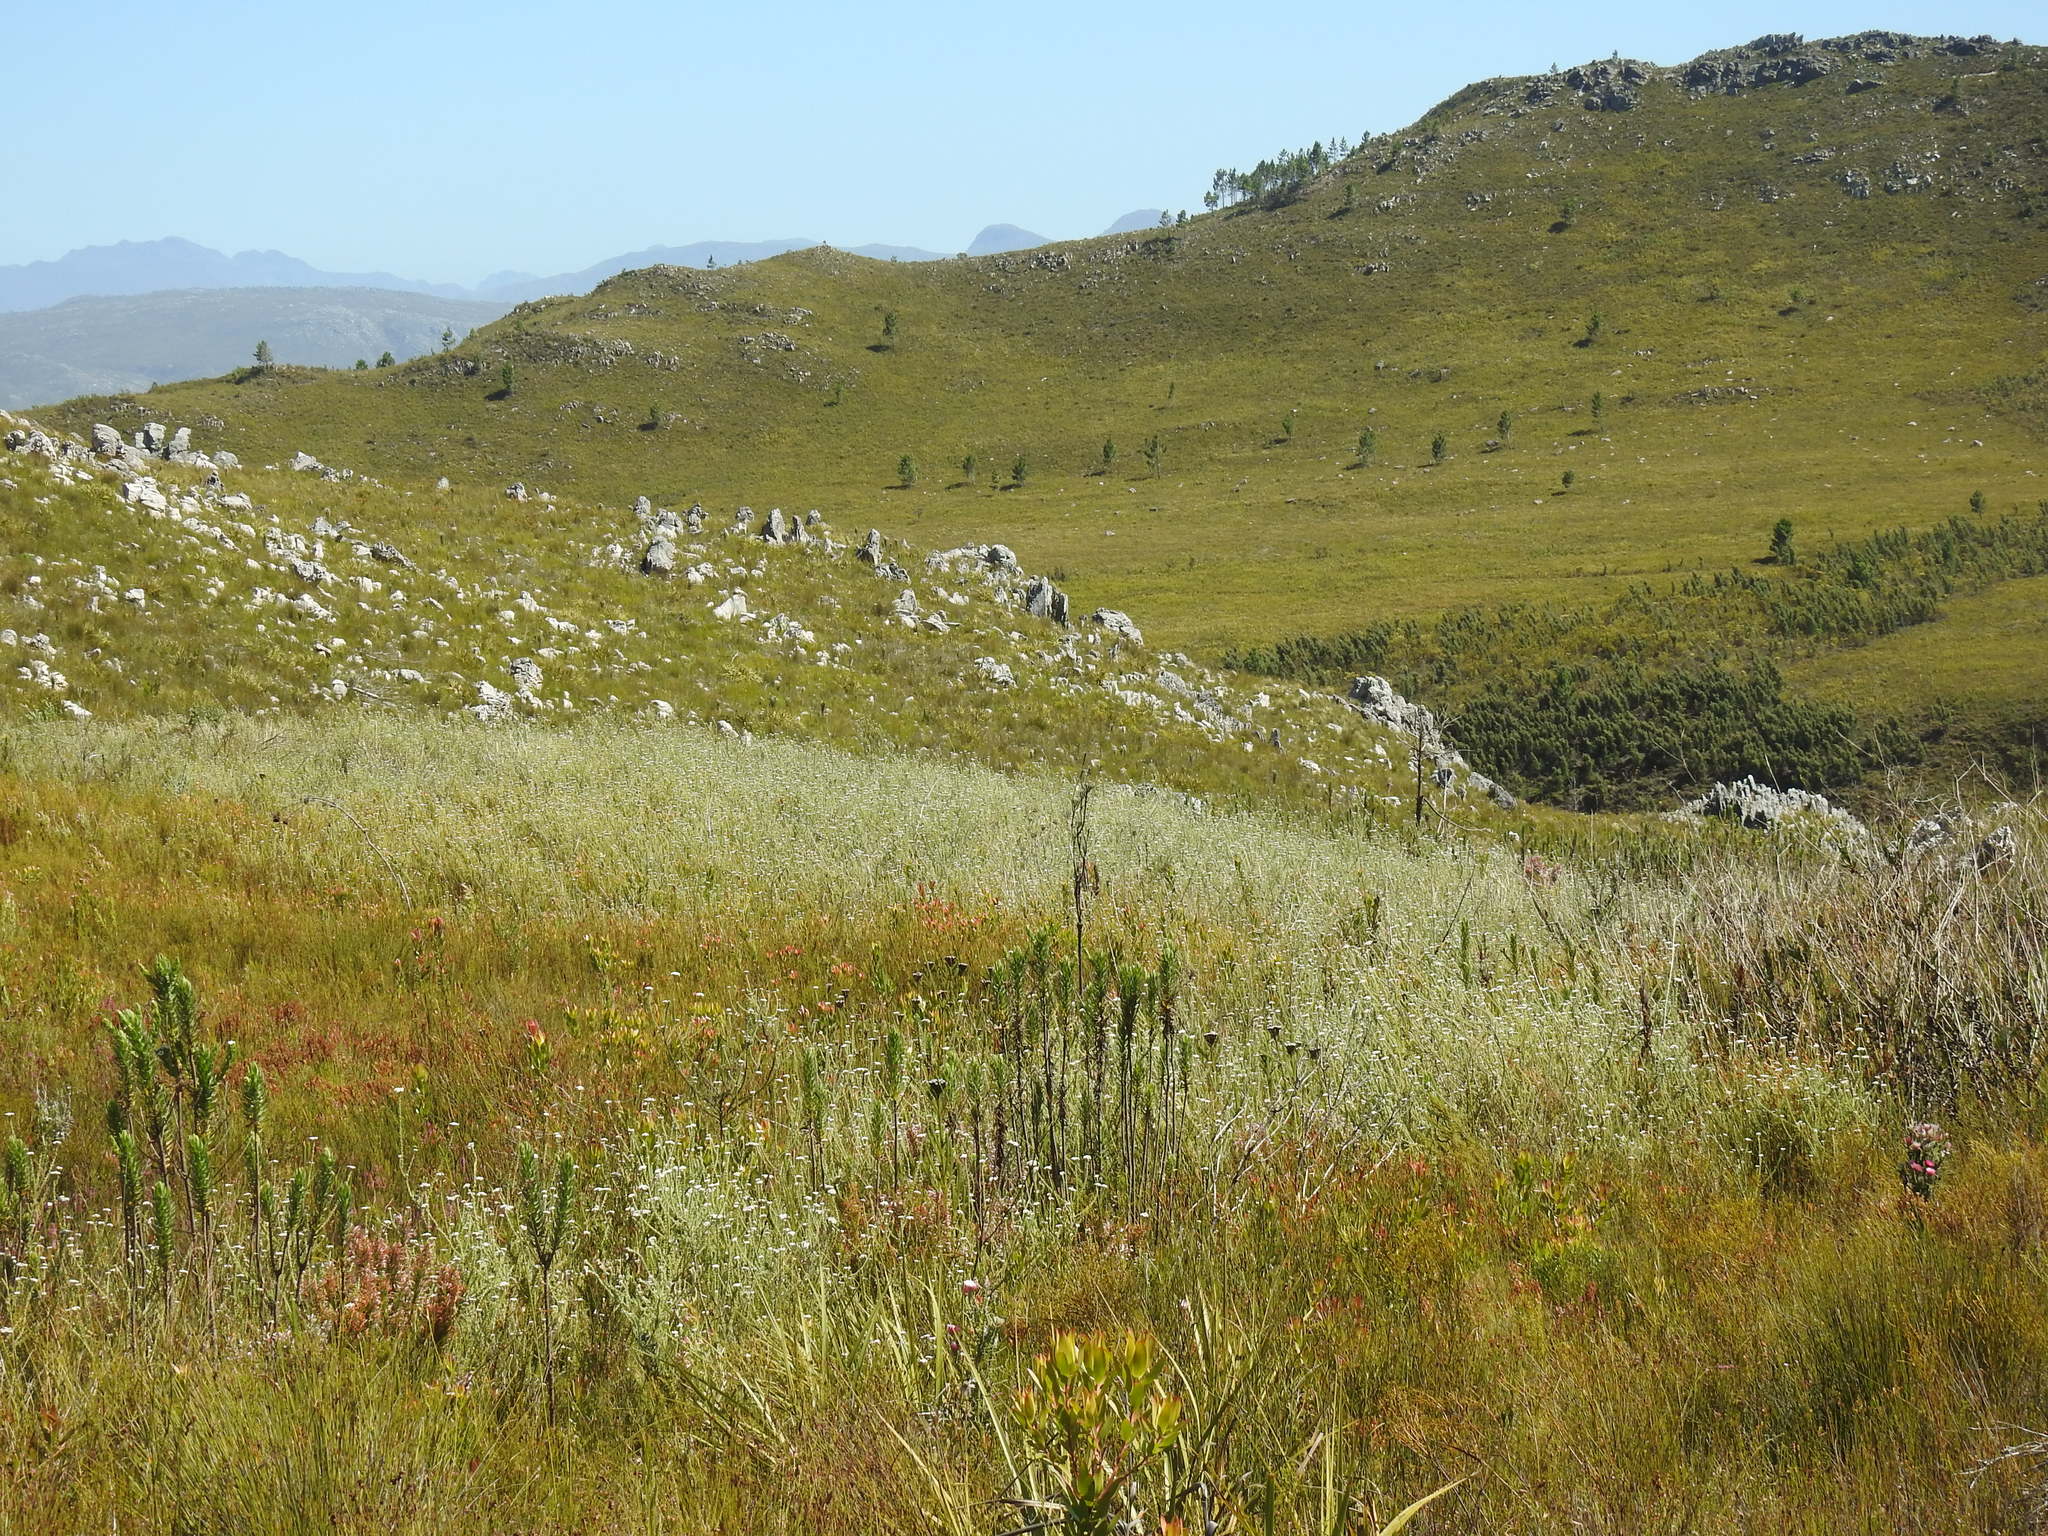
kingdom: Plantae
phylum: Tracheophyta
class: Magnoliopsida
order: Asterales
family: Asteraceae
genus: Metalasia
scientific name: Metalasia riparia
